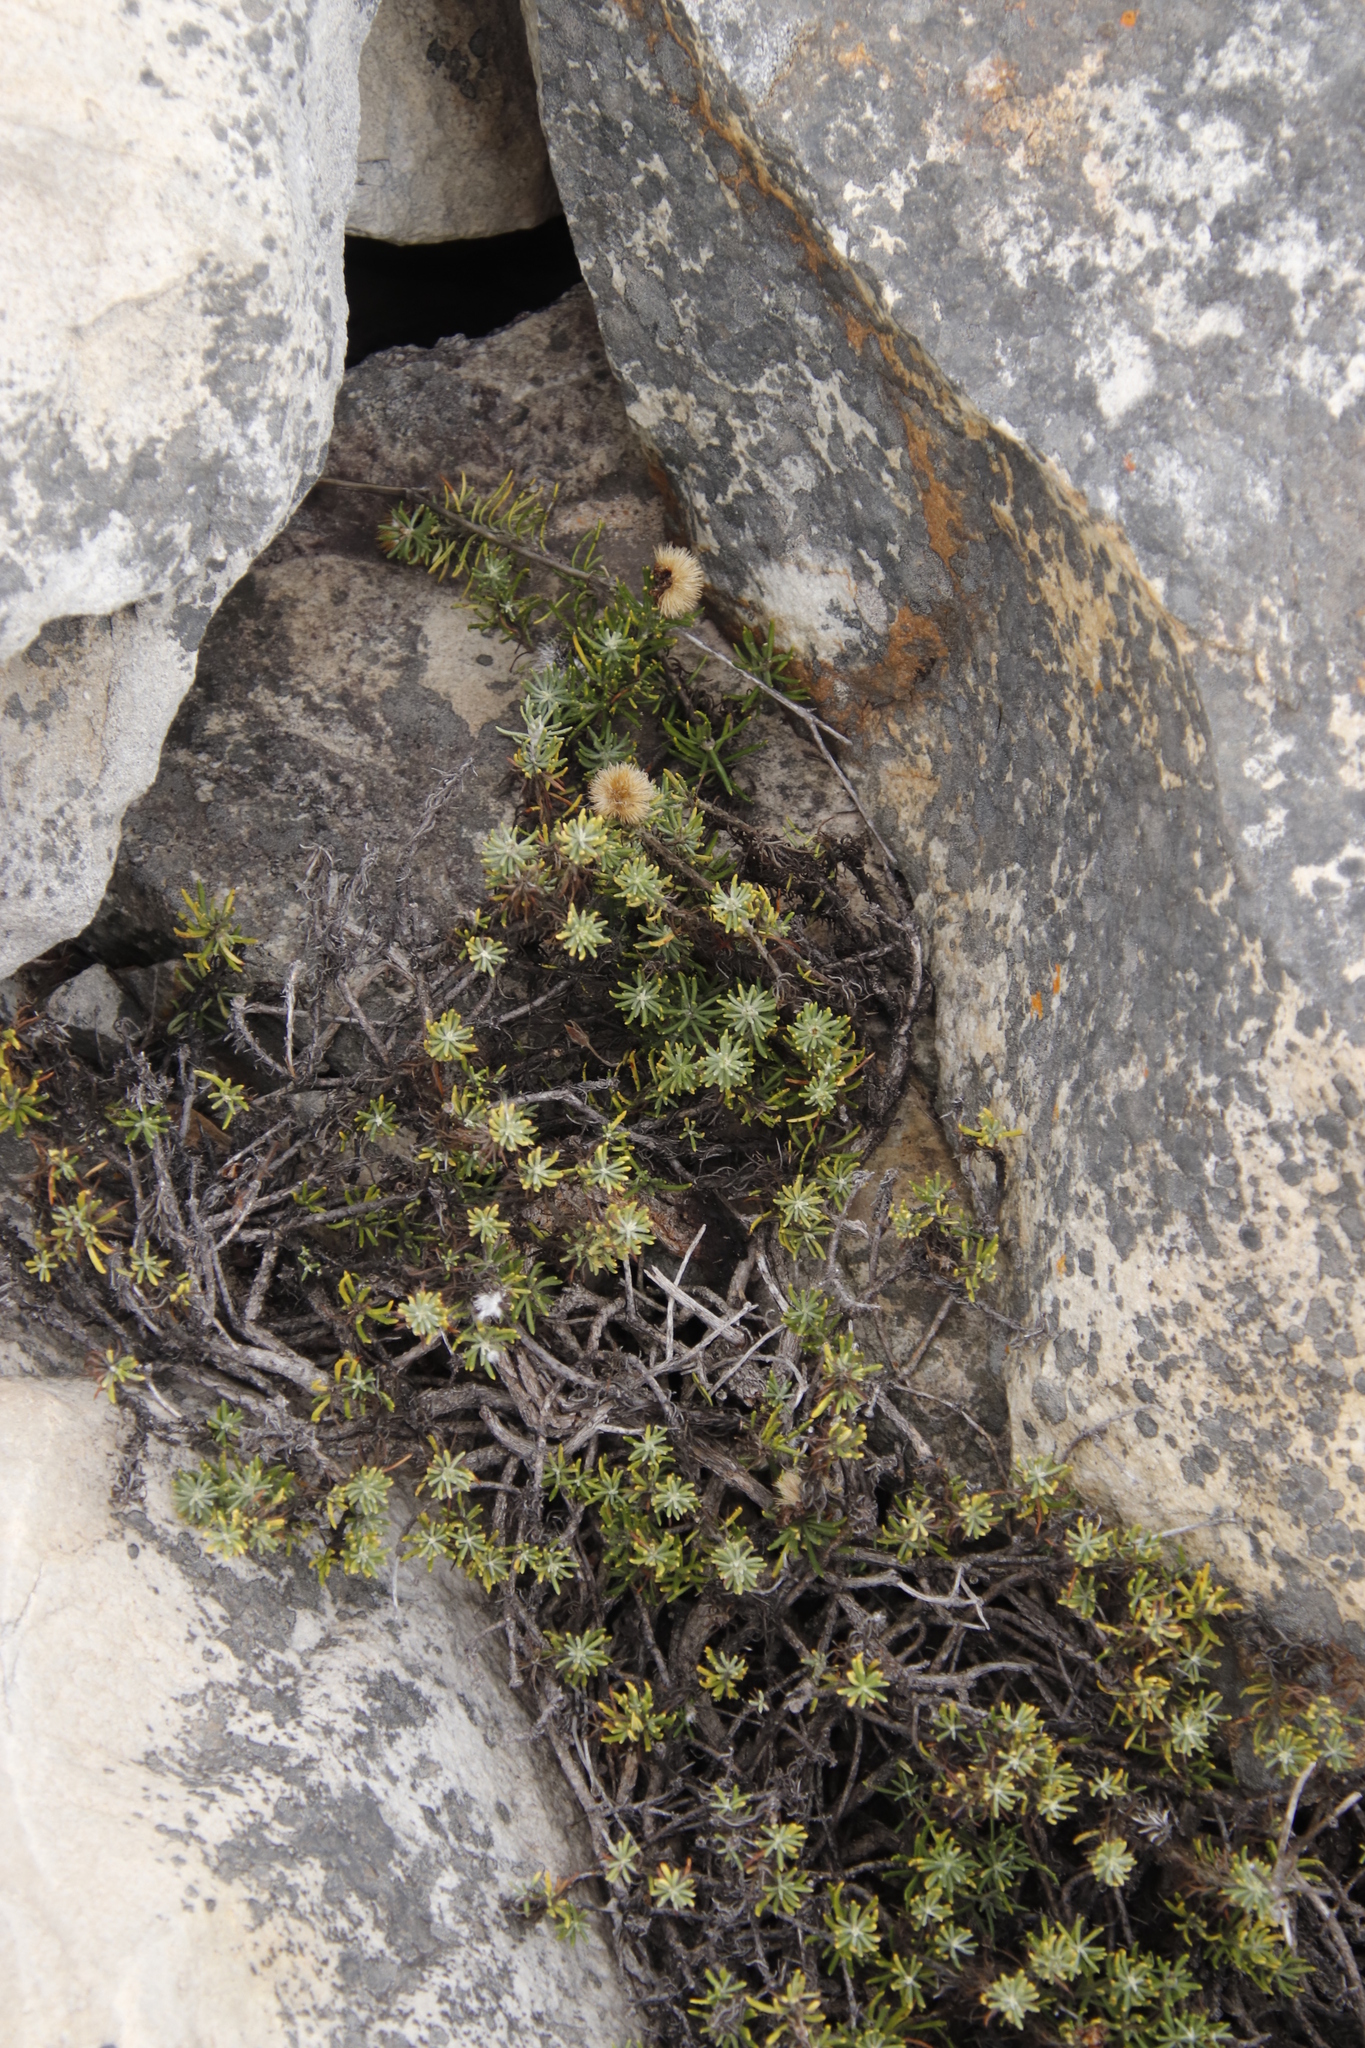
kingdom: Plantae
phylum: Tracheophyta
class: Magnoliopsida
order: Asterales
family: Asteraceae
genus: Heterolepis
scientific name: Heterolepis aliena
